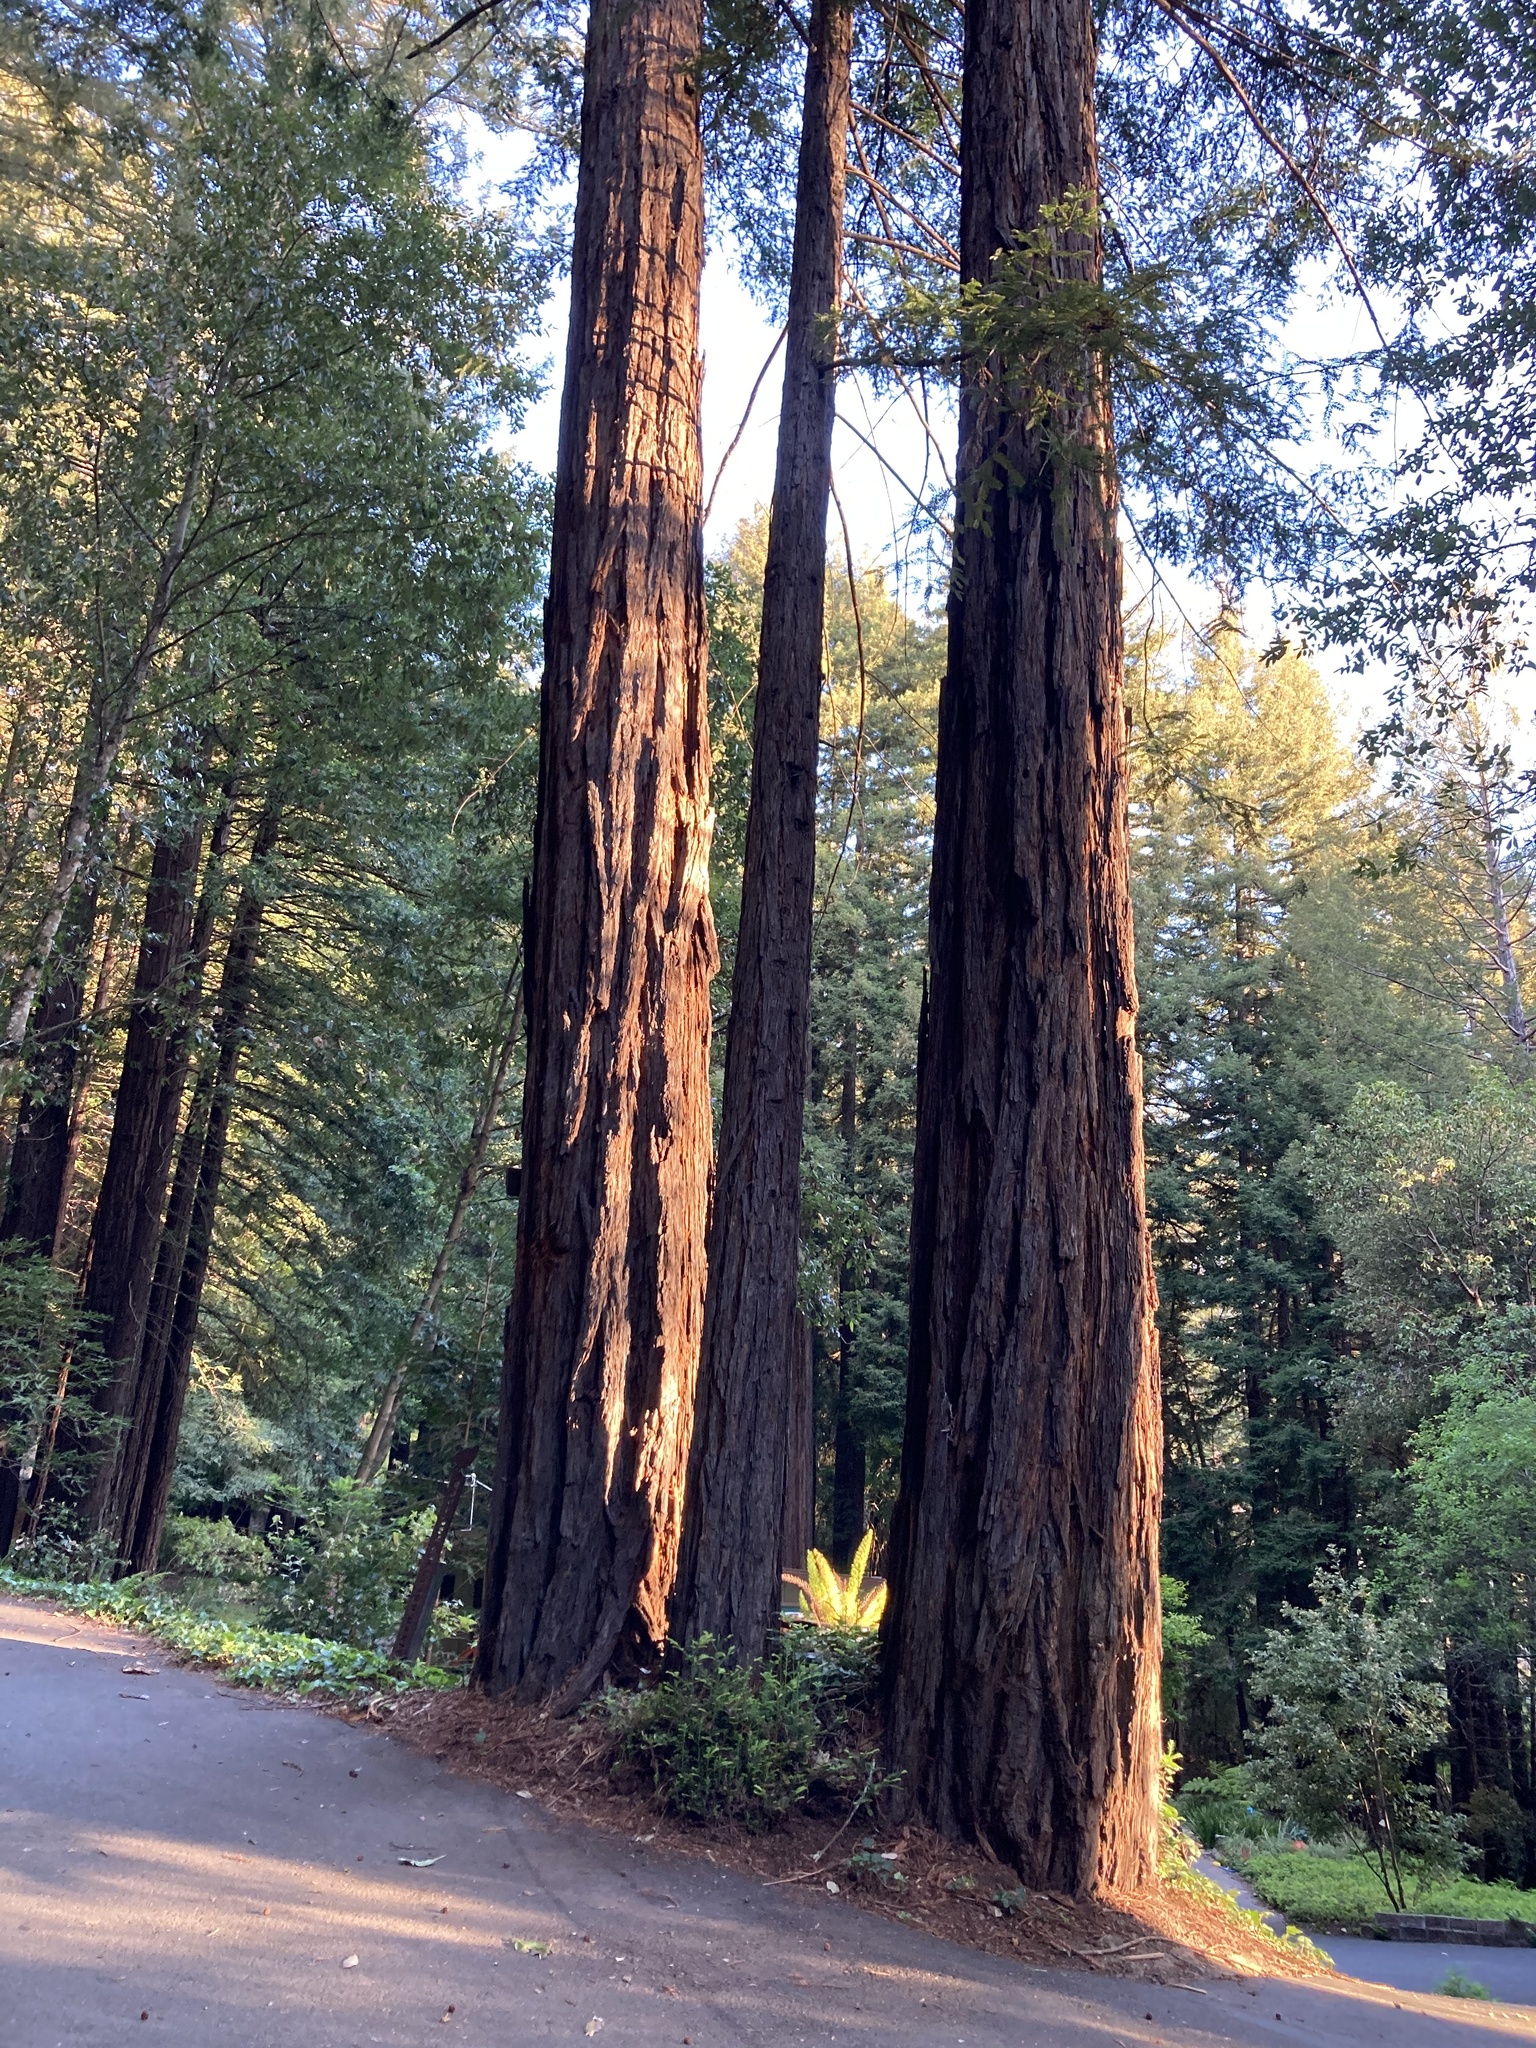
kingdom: Plantae
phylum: Tracheophyta
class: Pinopsida
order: Pinales
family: Cupressaceae
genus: Sequoia
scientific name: Sequoia sempervirens
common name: Coast redwood
